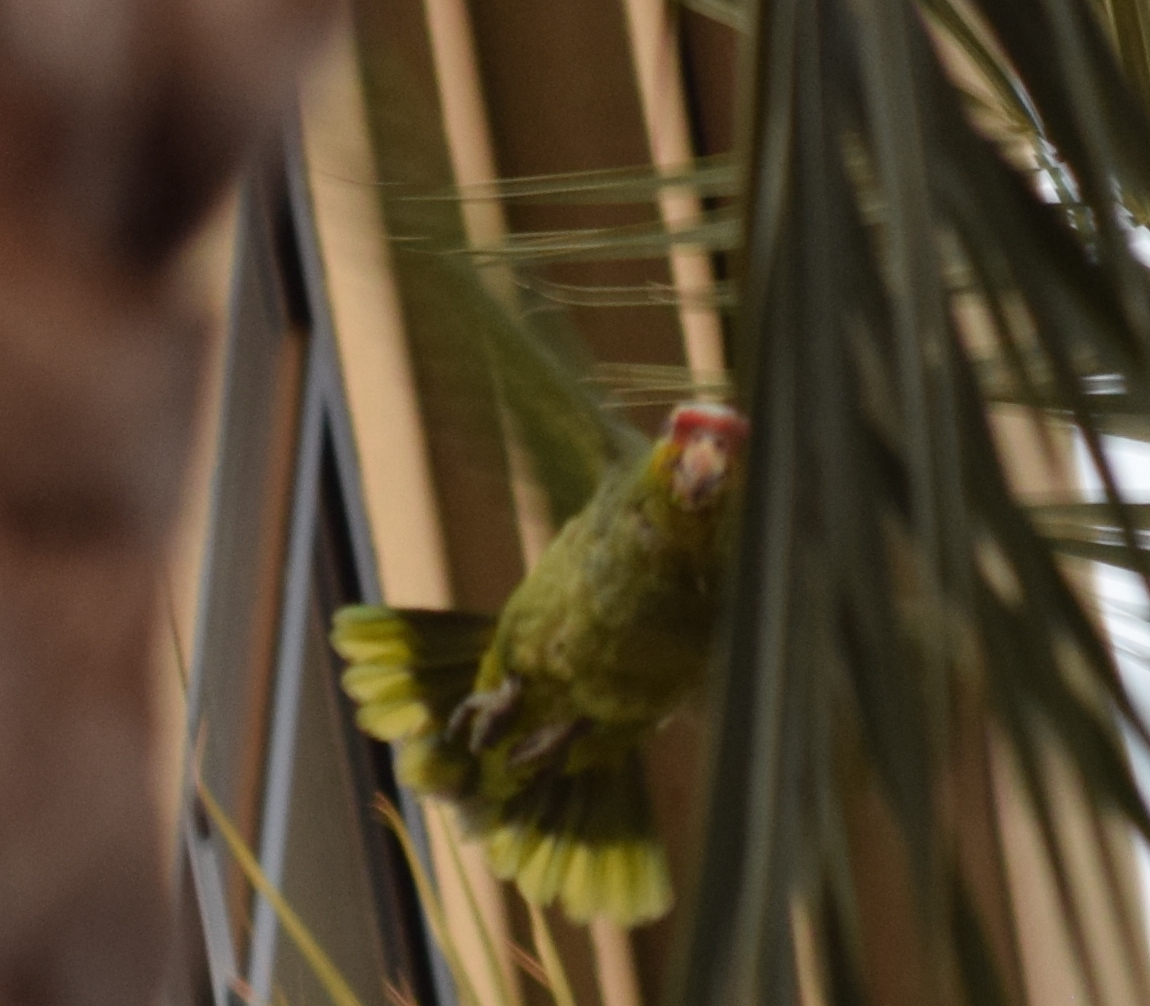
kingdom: Animalia
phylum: Chordata
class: Aves
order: Psittaciformes
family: Psittacidae
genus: Amazona
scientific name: Amazona autumnalis
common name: Red-lored amazon
